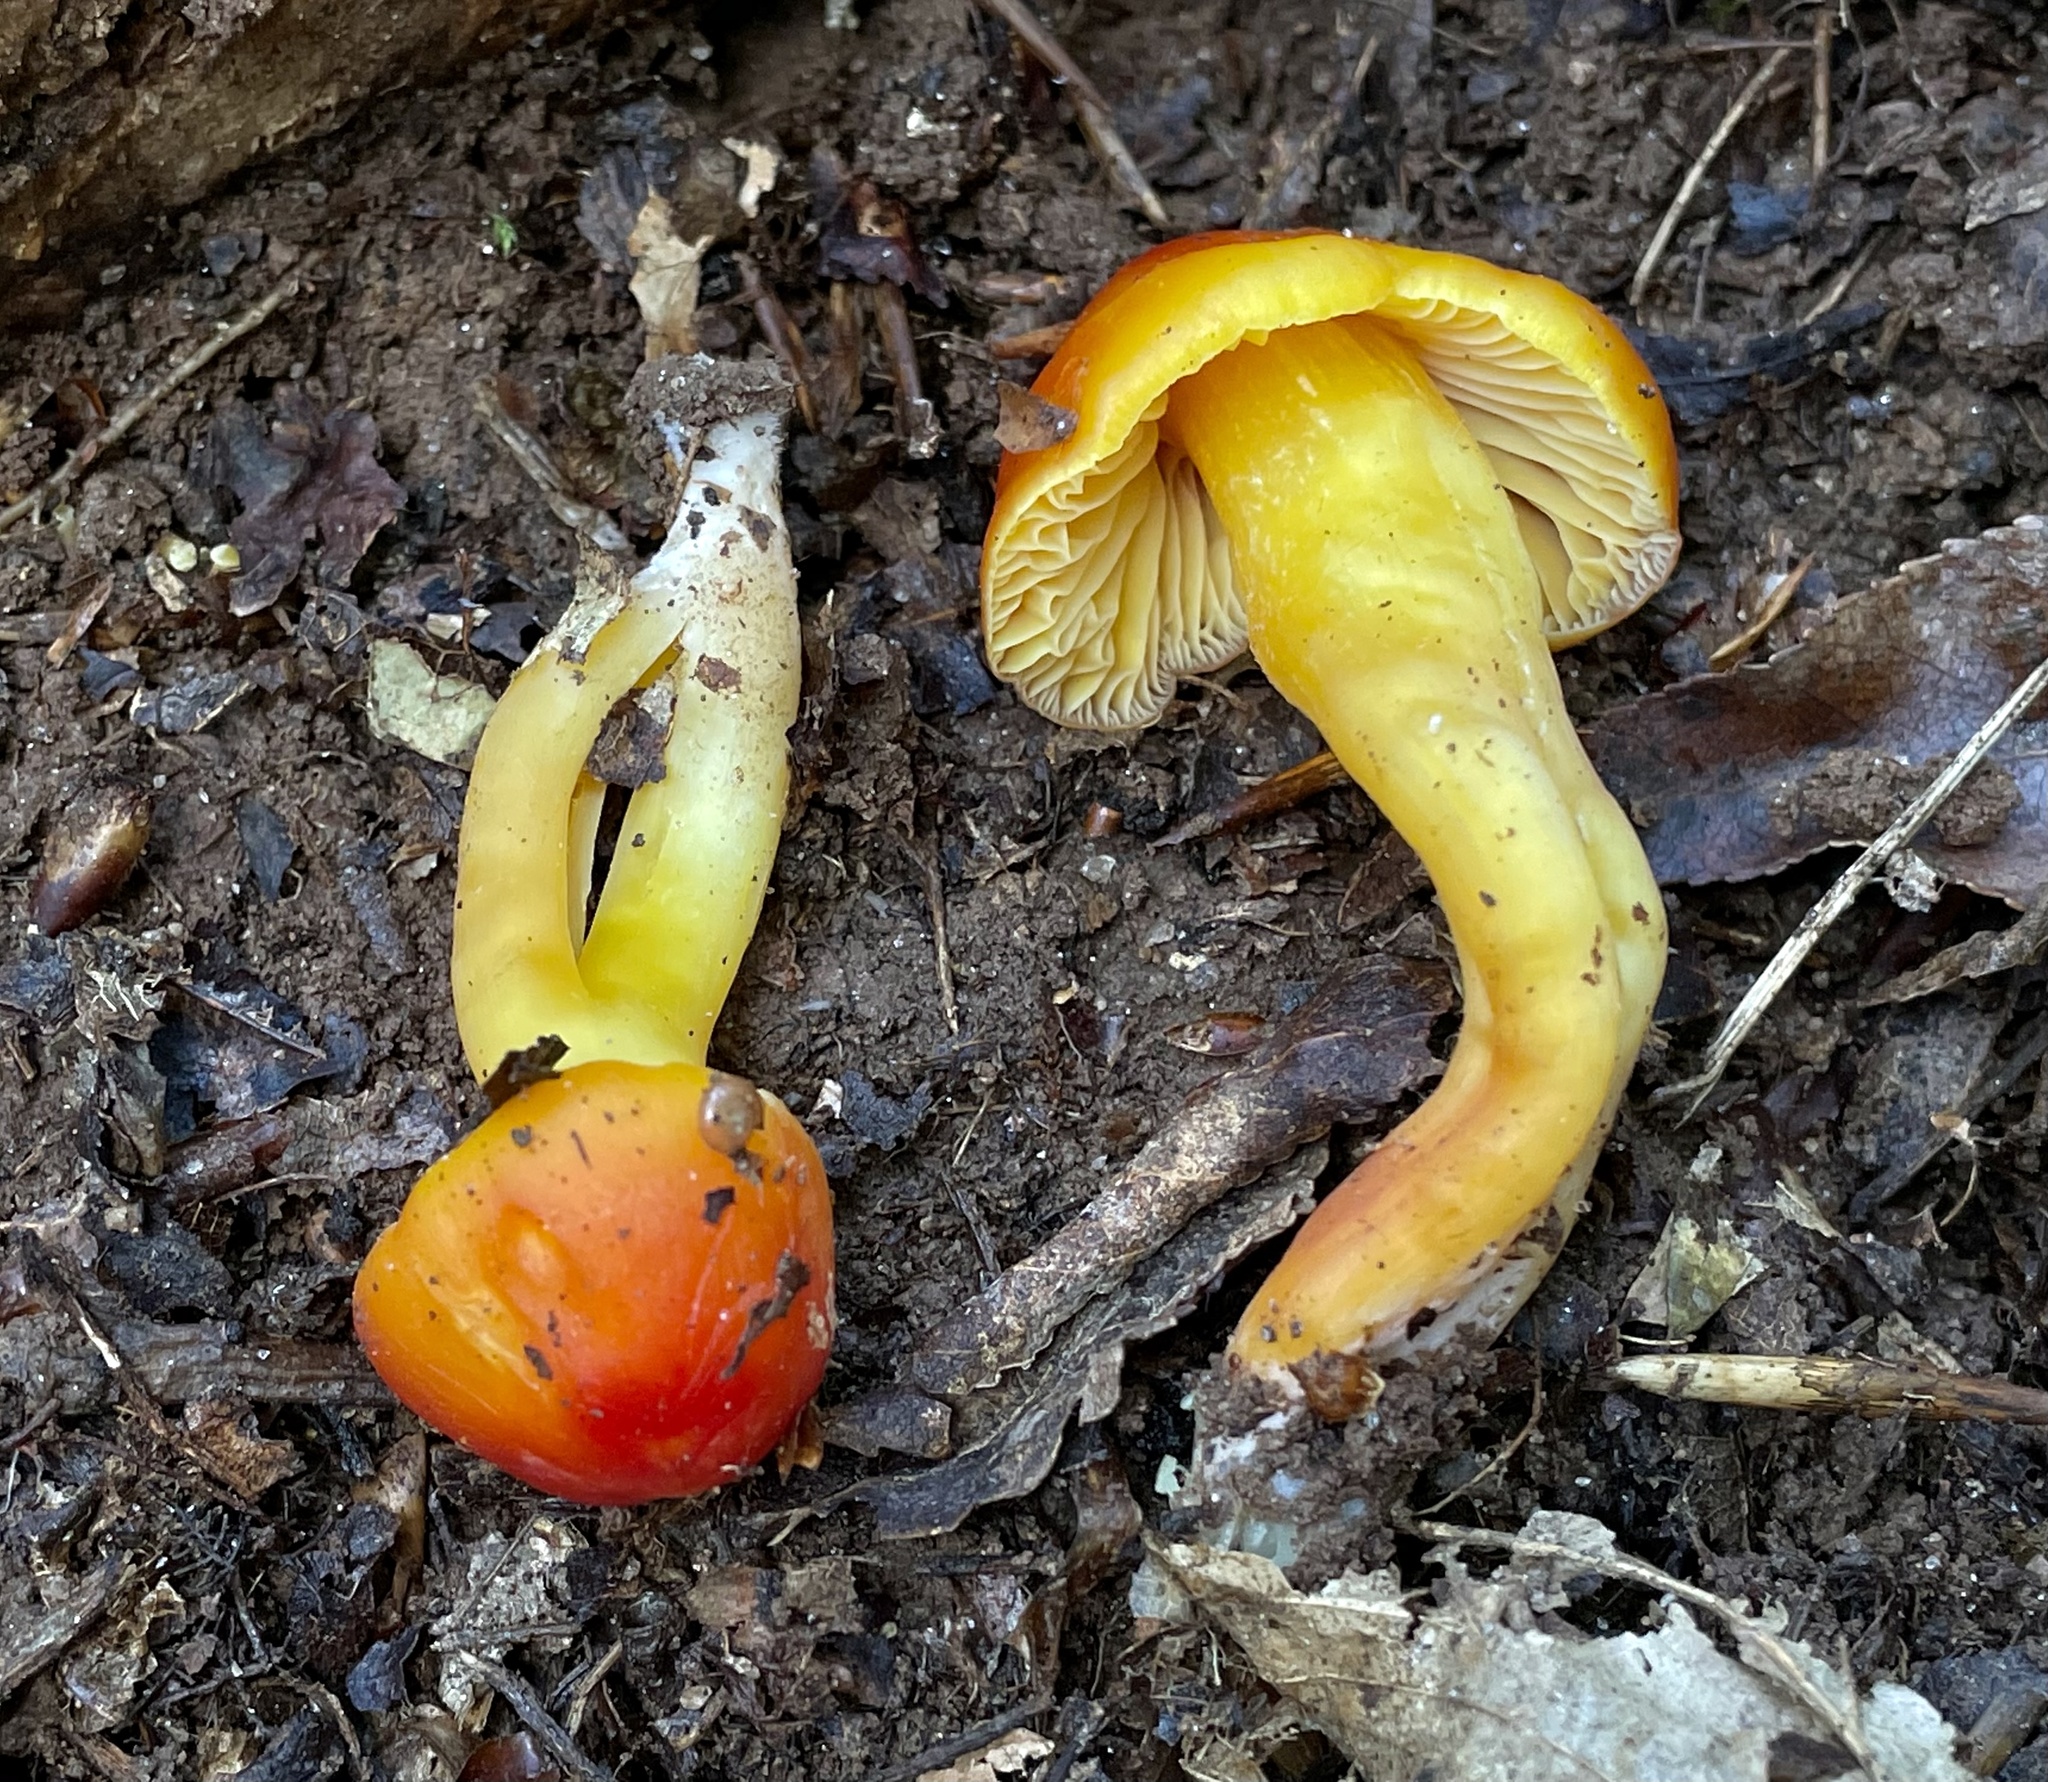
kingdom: Fungi
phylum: Basidiomycota
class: Agaricomycetes
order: Agaricales
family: Hygrophoraceae
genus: Hygrocybe
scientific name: Hygrocybe punicea
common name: Crimson waxcap
